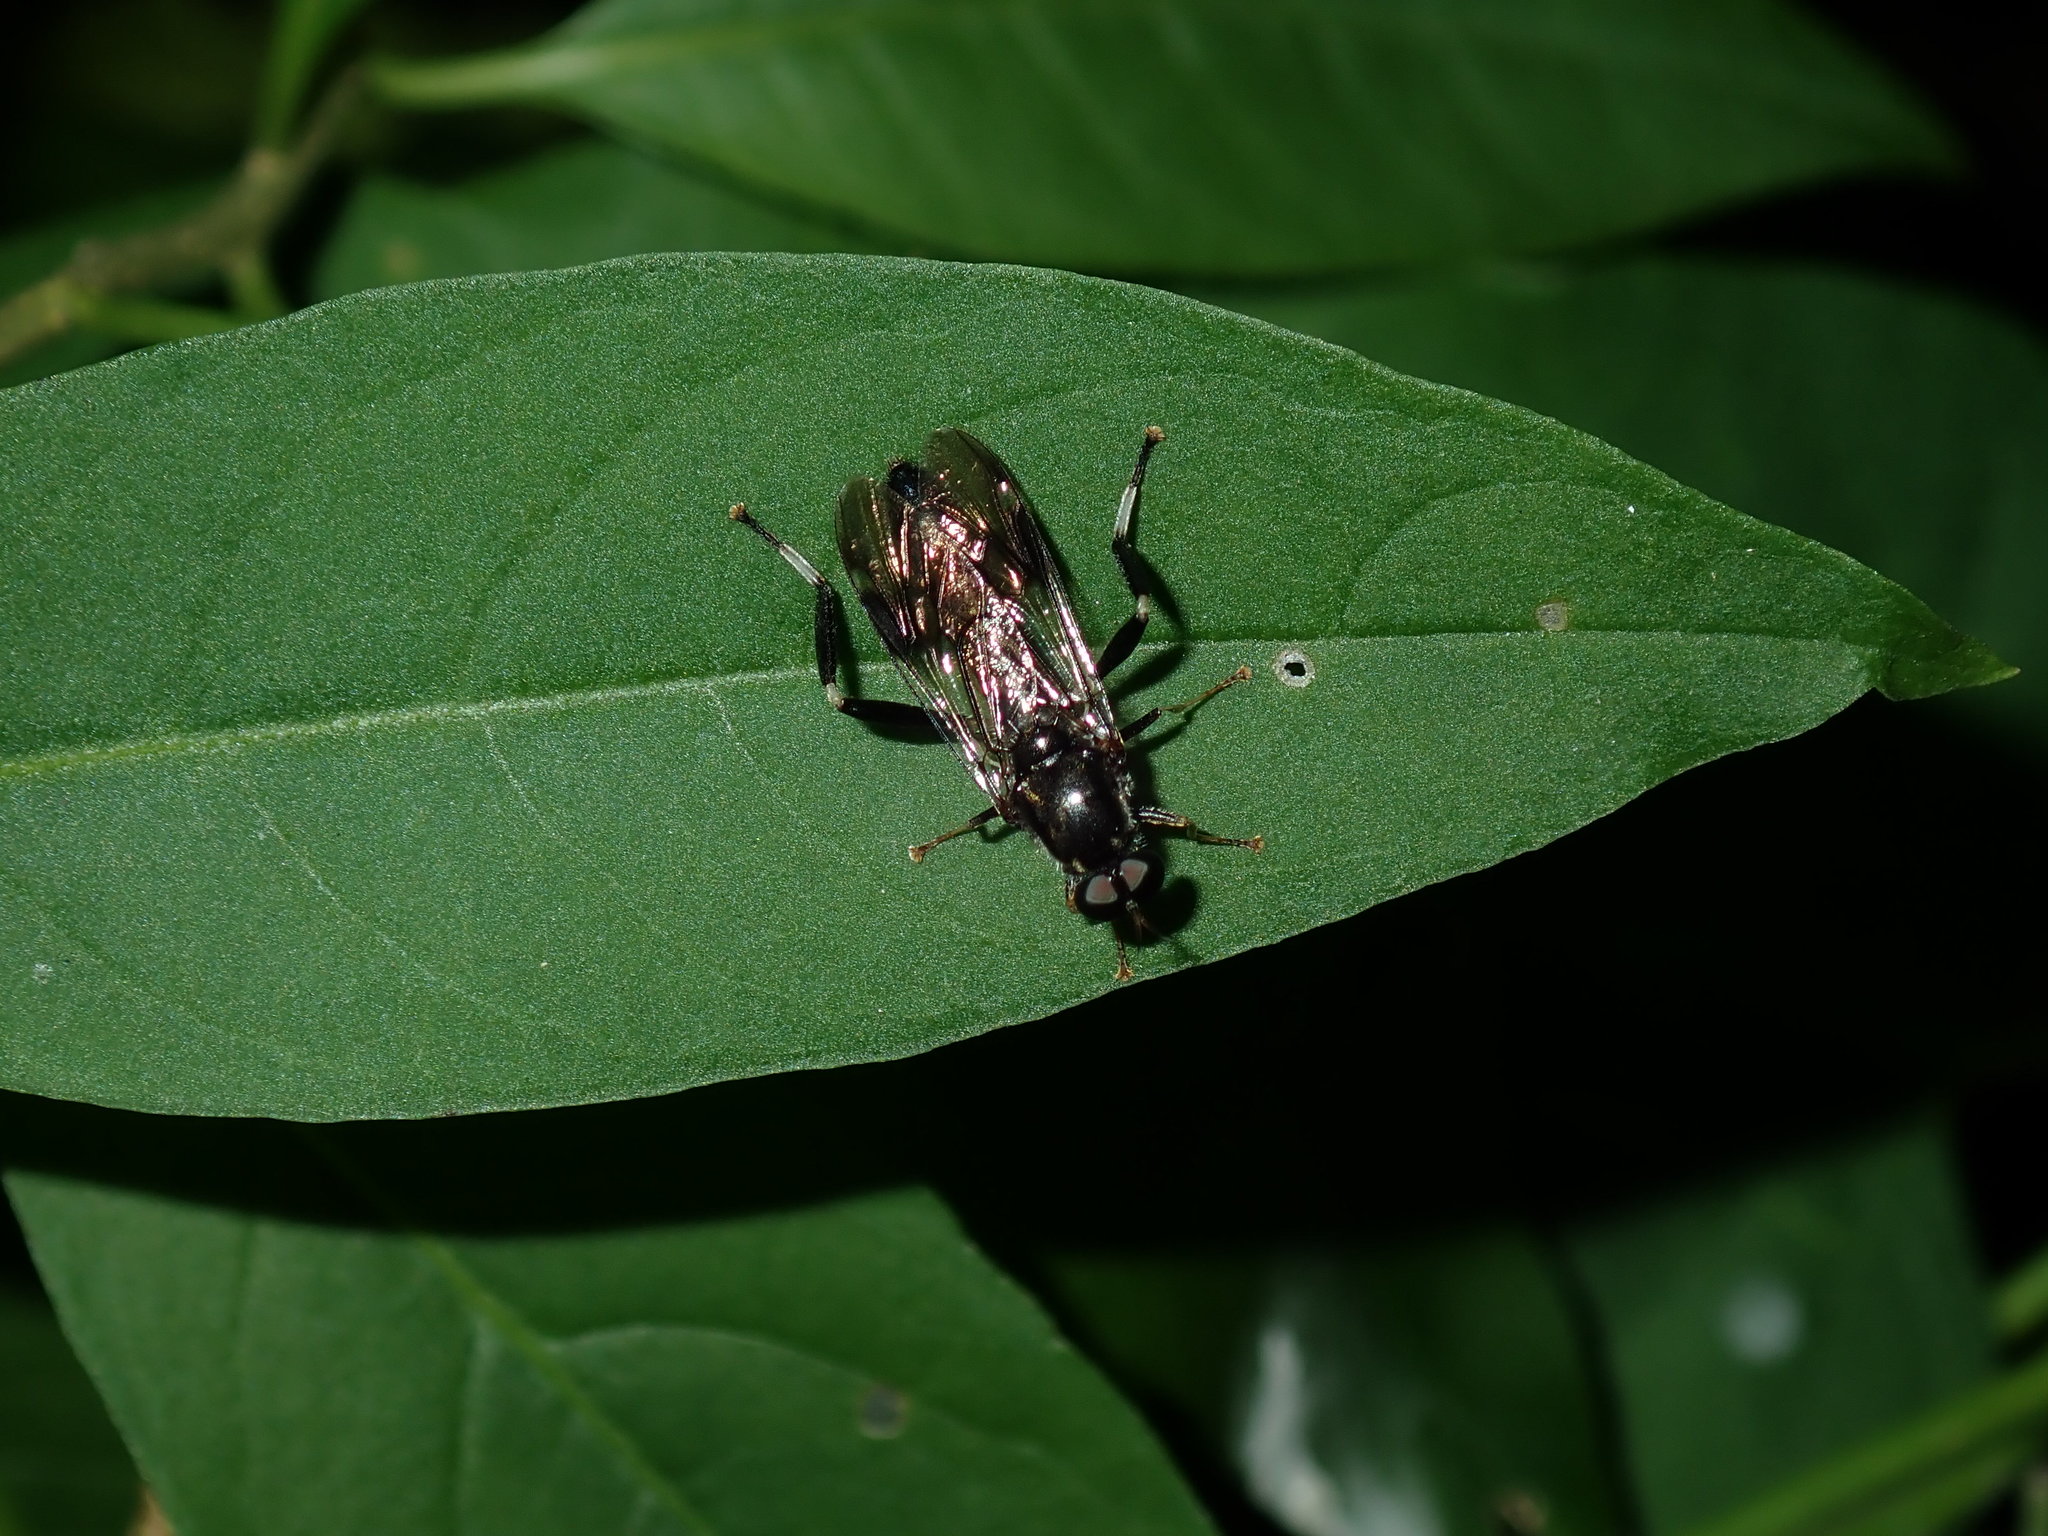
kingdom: Animalia
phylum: Arthropoda
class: Insecta
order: Diptera
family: Stratiomyidae
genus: Exaireta
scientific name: Exaireta spinigera
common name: Blue soldier fly
